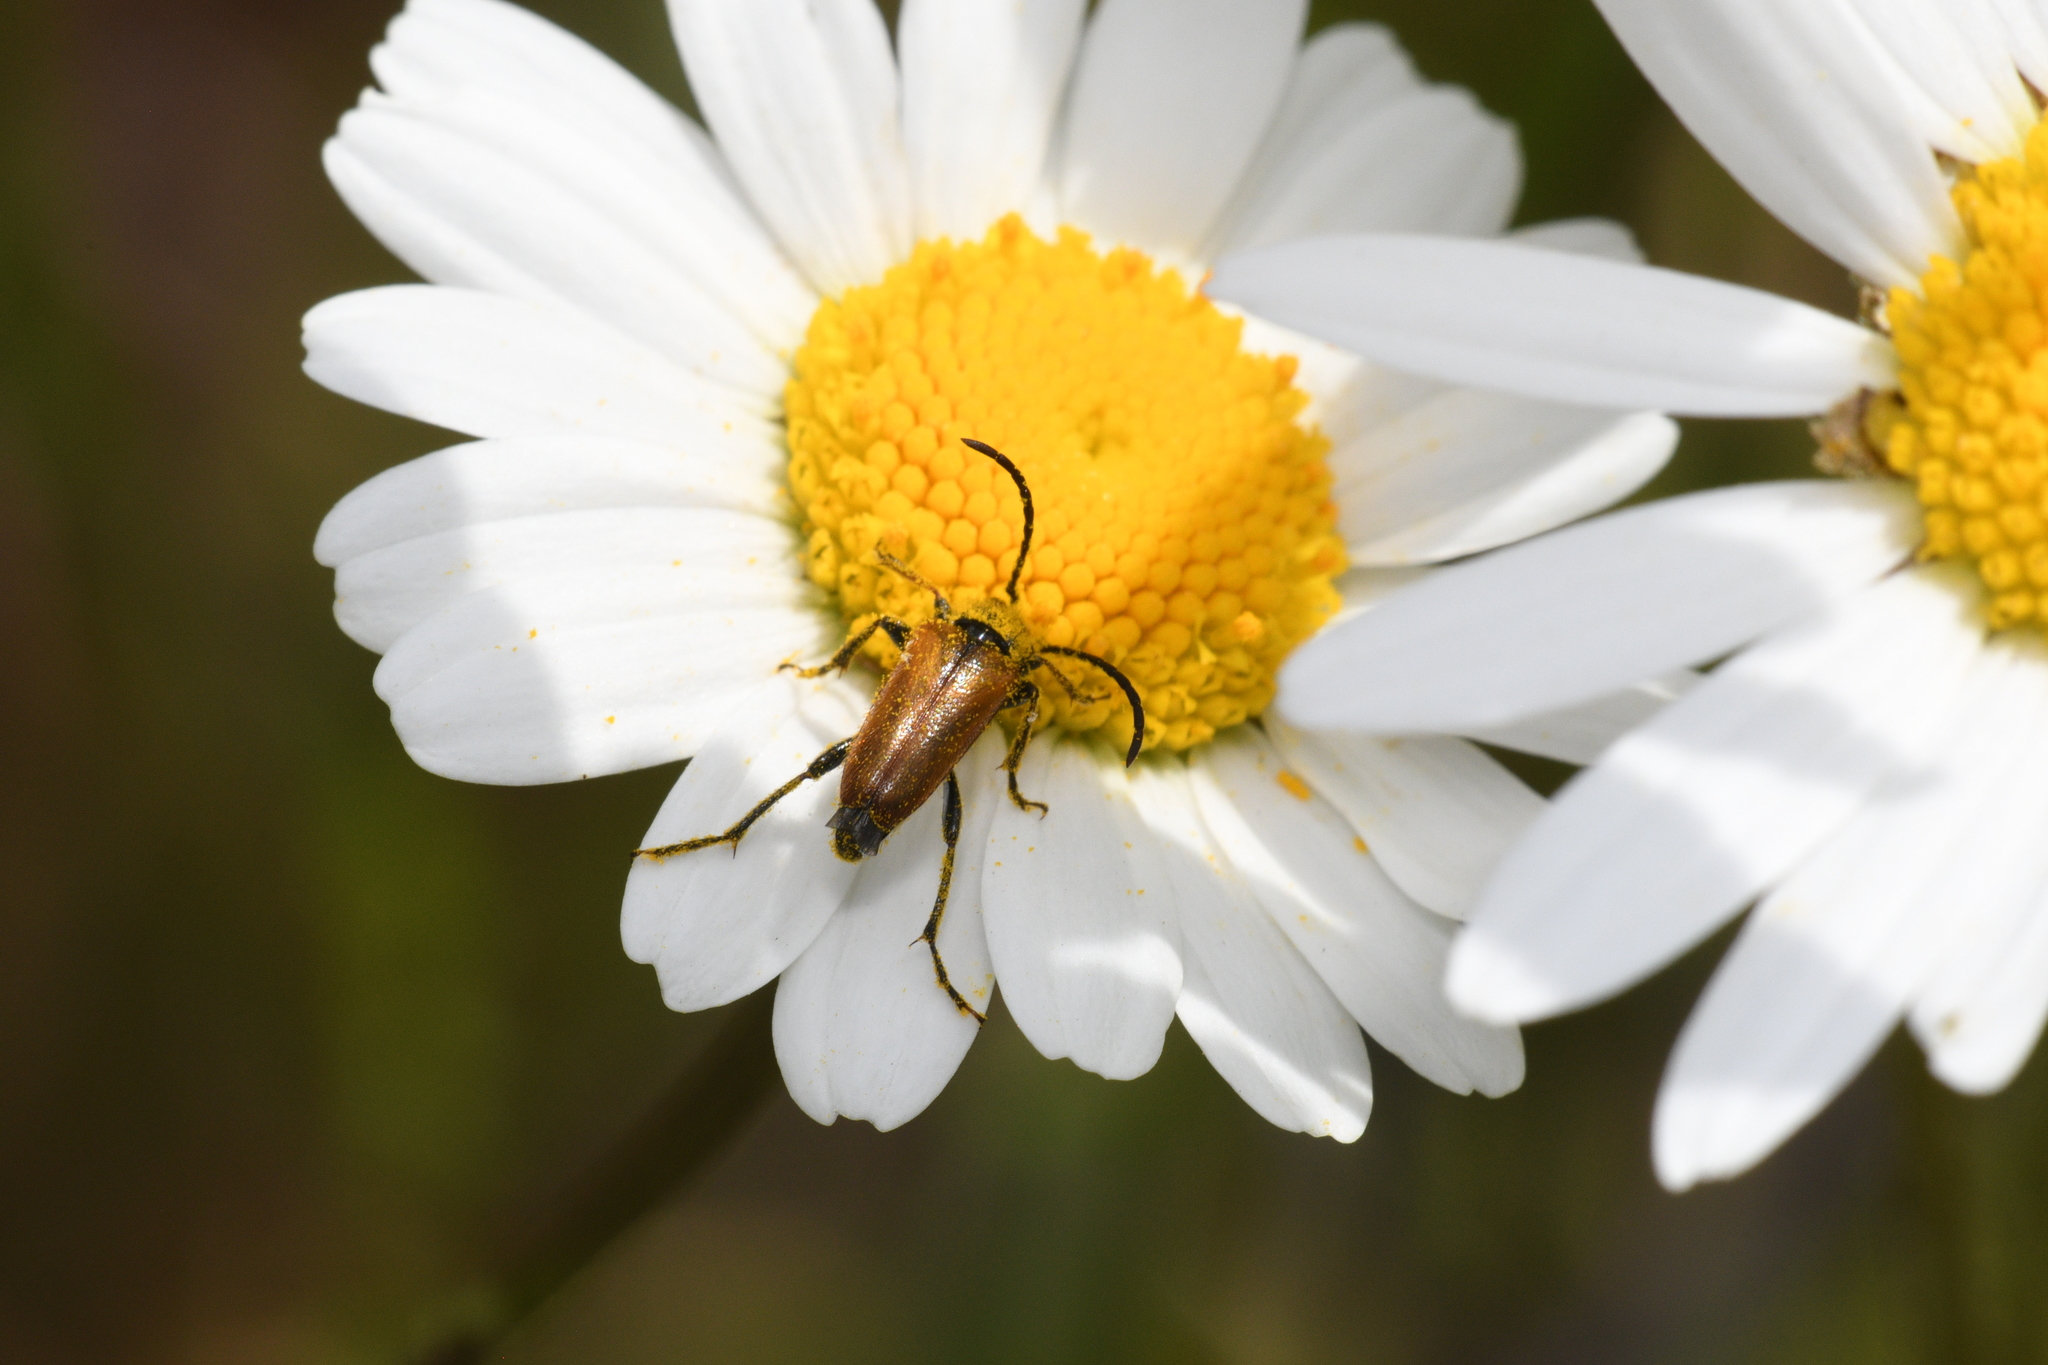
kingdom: Animalia
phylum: Arthropoda
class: Insecta
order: Coleoptera
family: Cerambycidae
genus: Pseudovadonia
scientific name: Pseudovadonia livida
